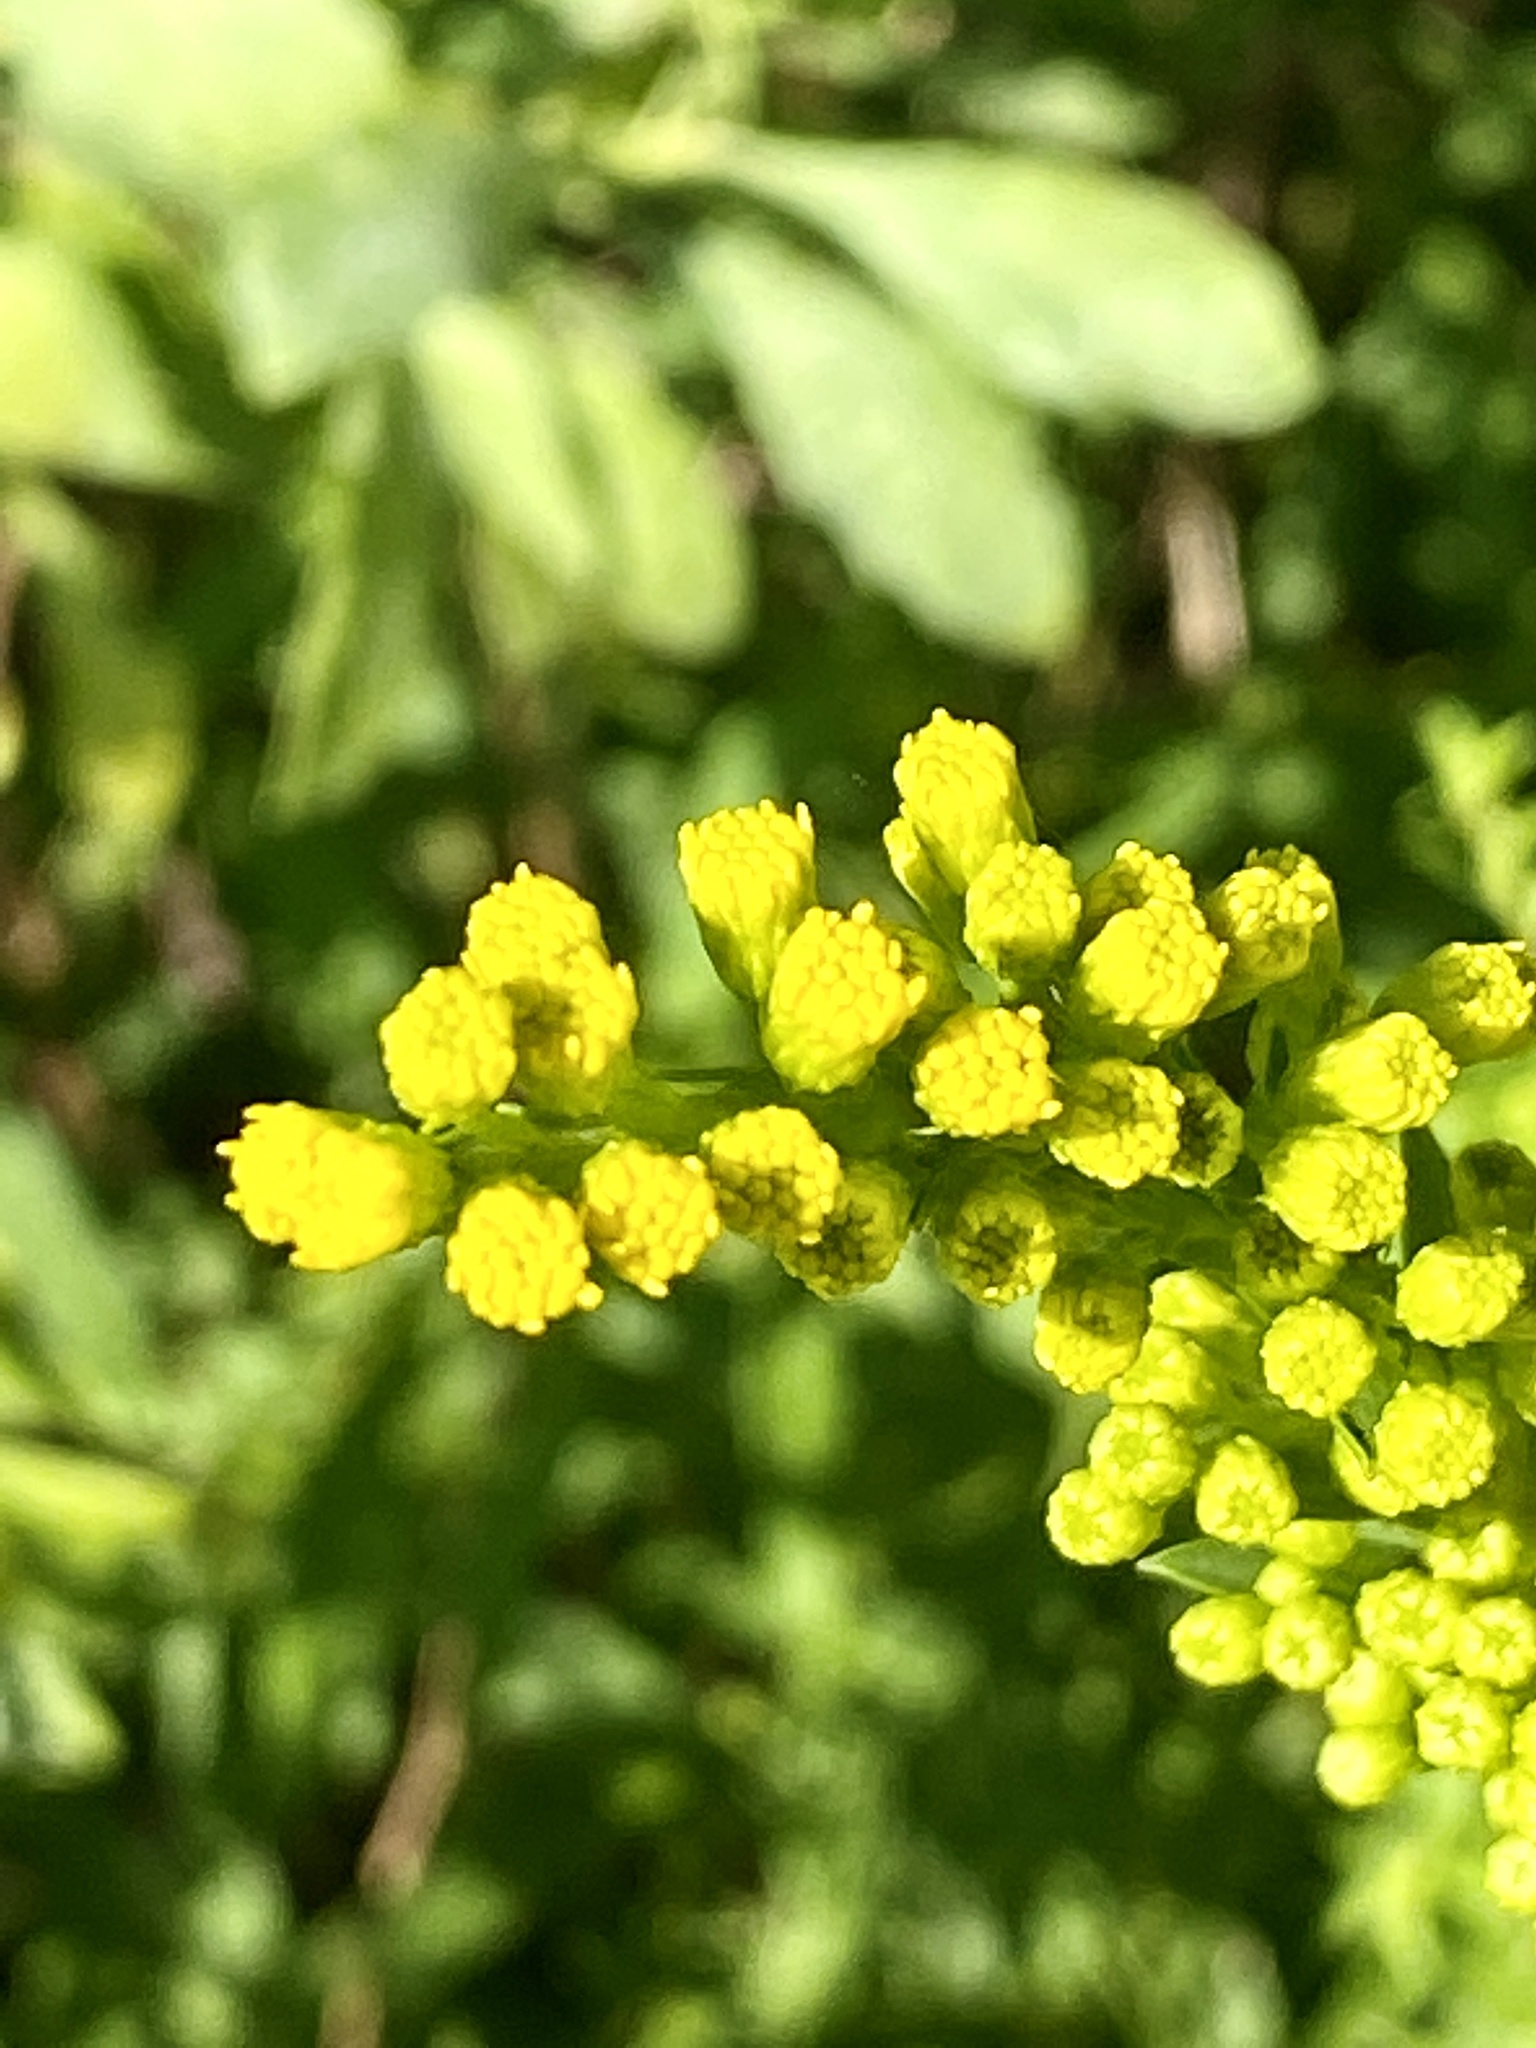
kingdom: Plantae
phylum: Tracheophyta
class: Magnoliopsida
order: Asterales
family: Asteraceae
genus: Solidago
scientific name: Solidago sempervirens
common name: Salt-marsh goldenrod
